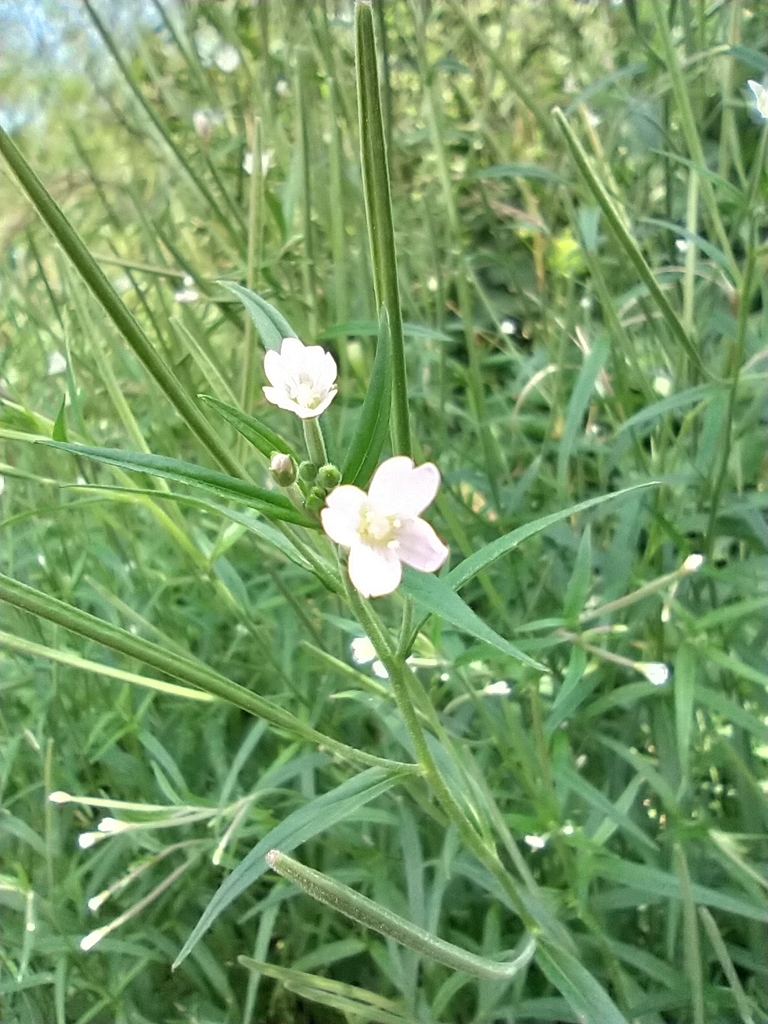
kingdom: Plantae
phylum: Tracheophyta
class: Magnoliopsida
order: Myrtales
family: Onagraceae
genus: Epilobium
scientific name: Epilobium palustre
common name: Marsh willowherb
